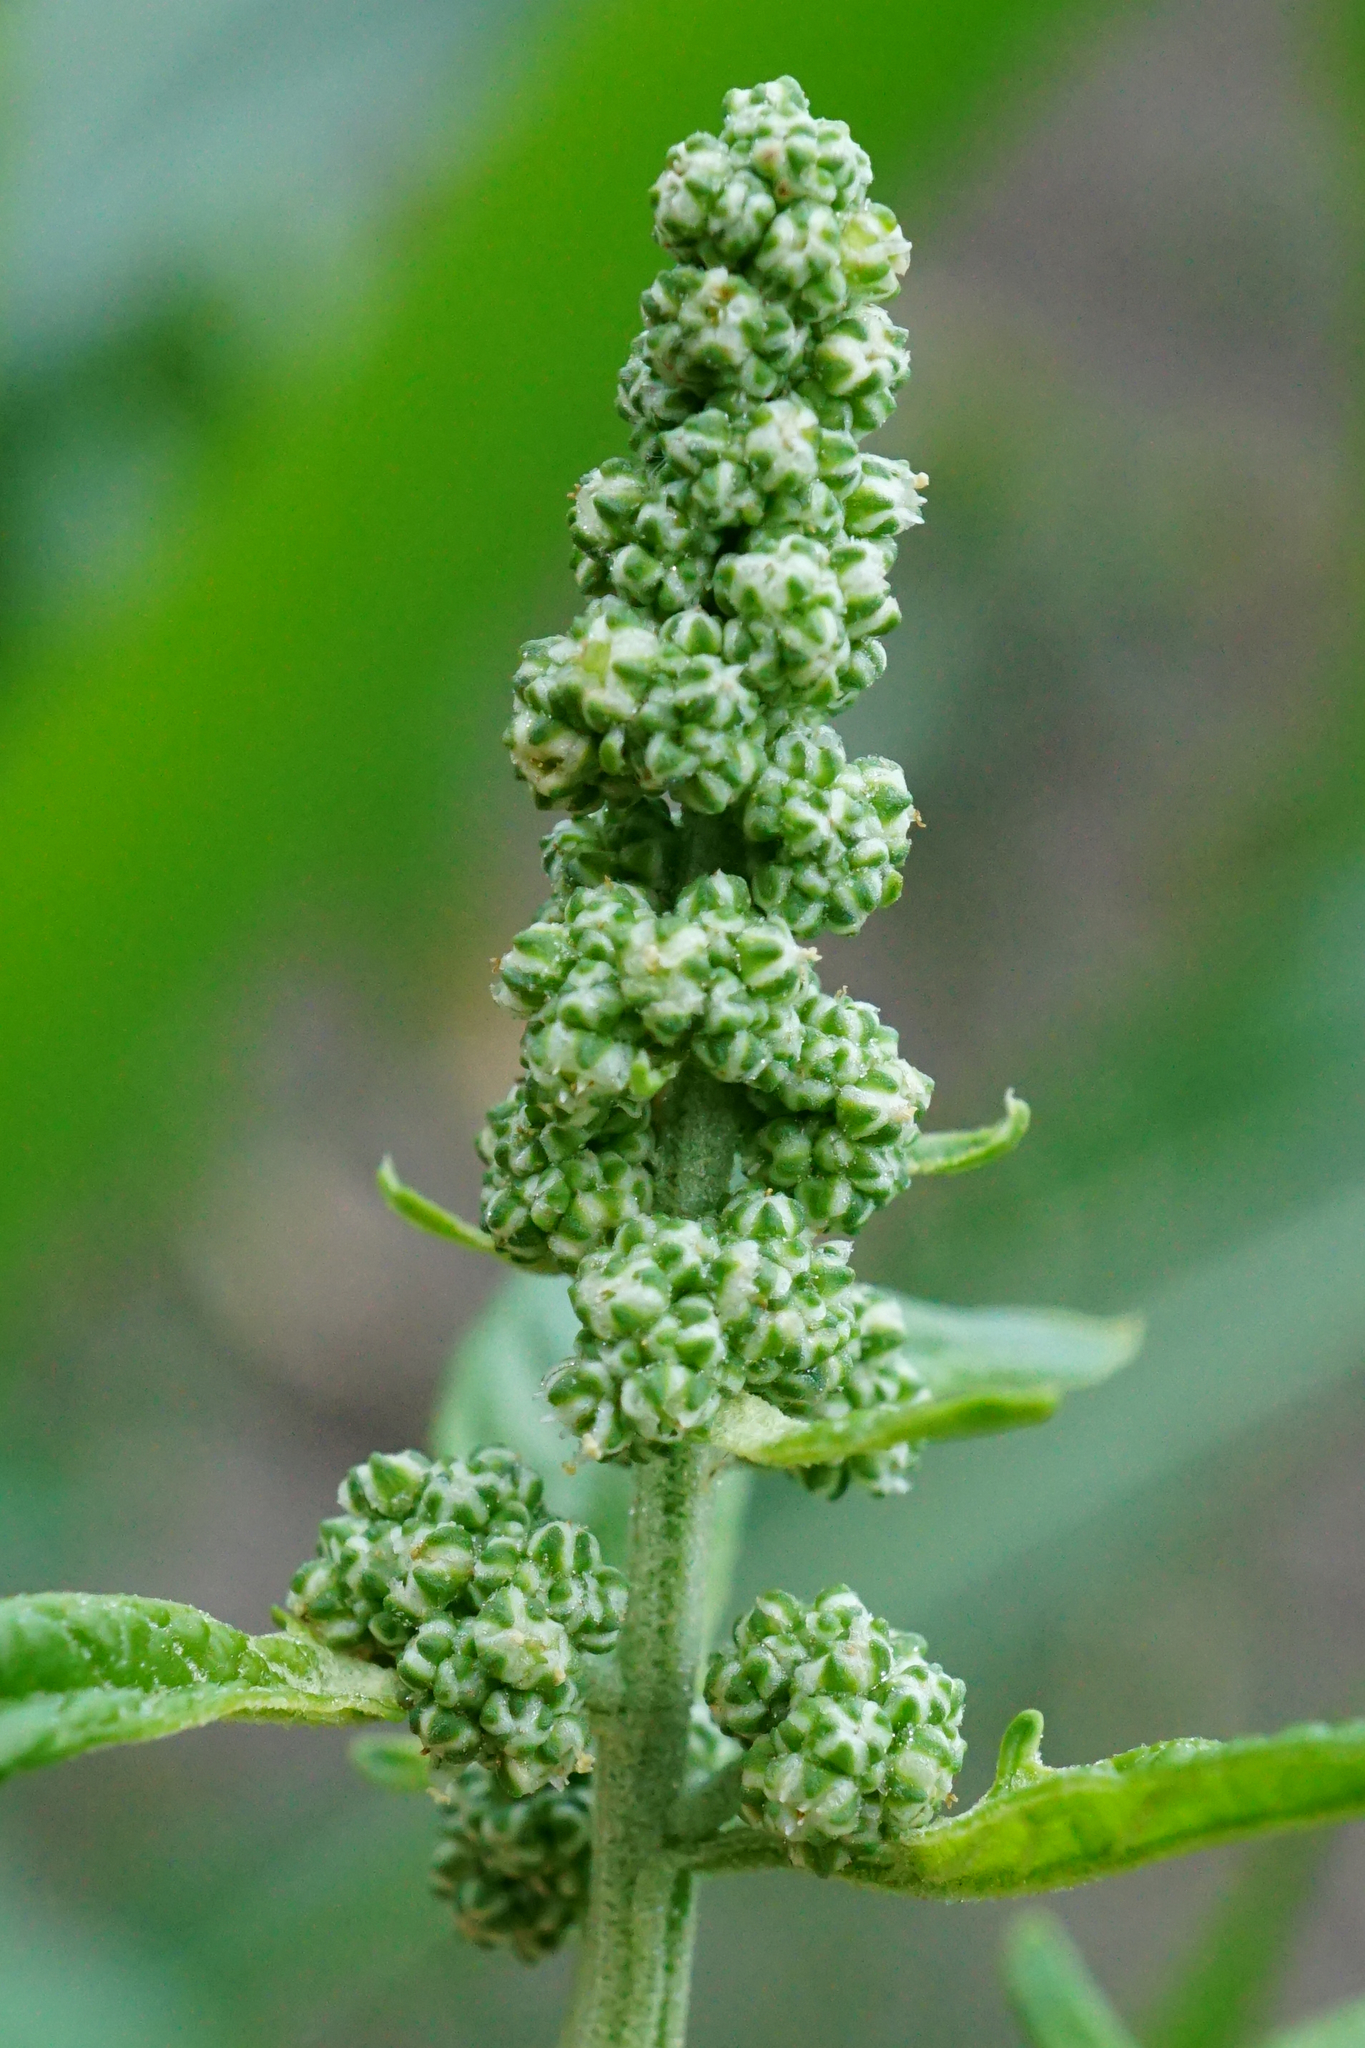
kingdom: Plantae
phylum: Tracheophyta
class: Magnoliopsida
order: Caryophyllales
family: Amaranthaceae
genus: Chenopodiastrum
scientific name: Chenopodiastrum hybridum
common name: Mapleleaf goosefoot
